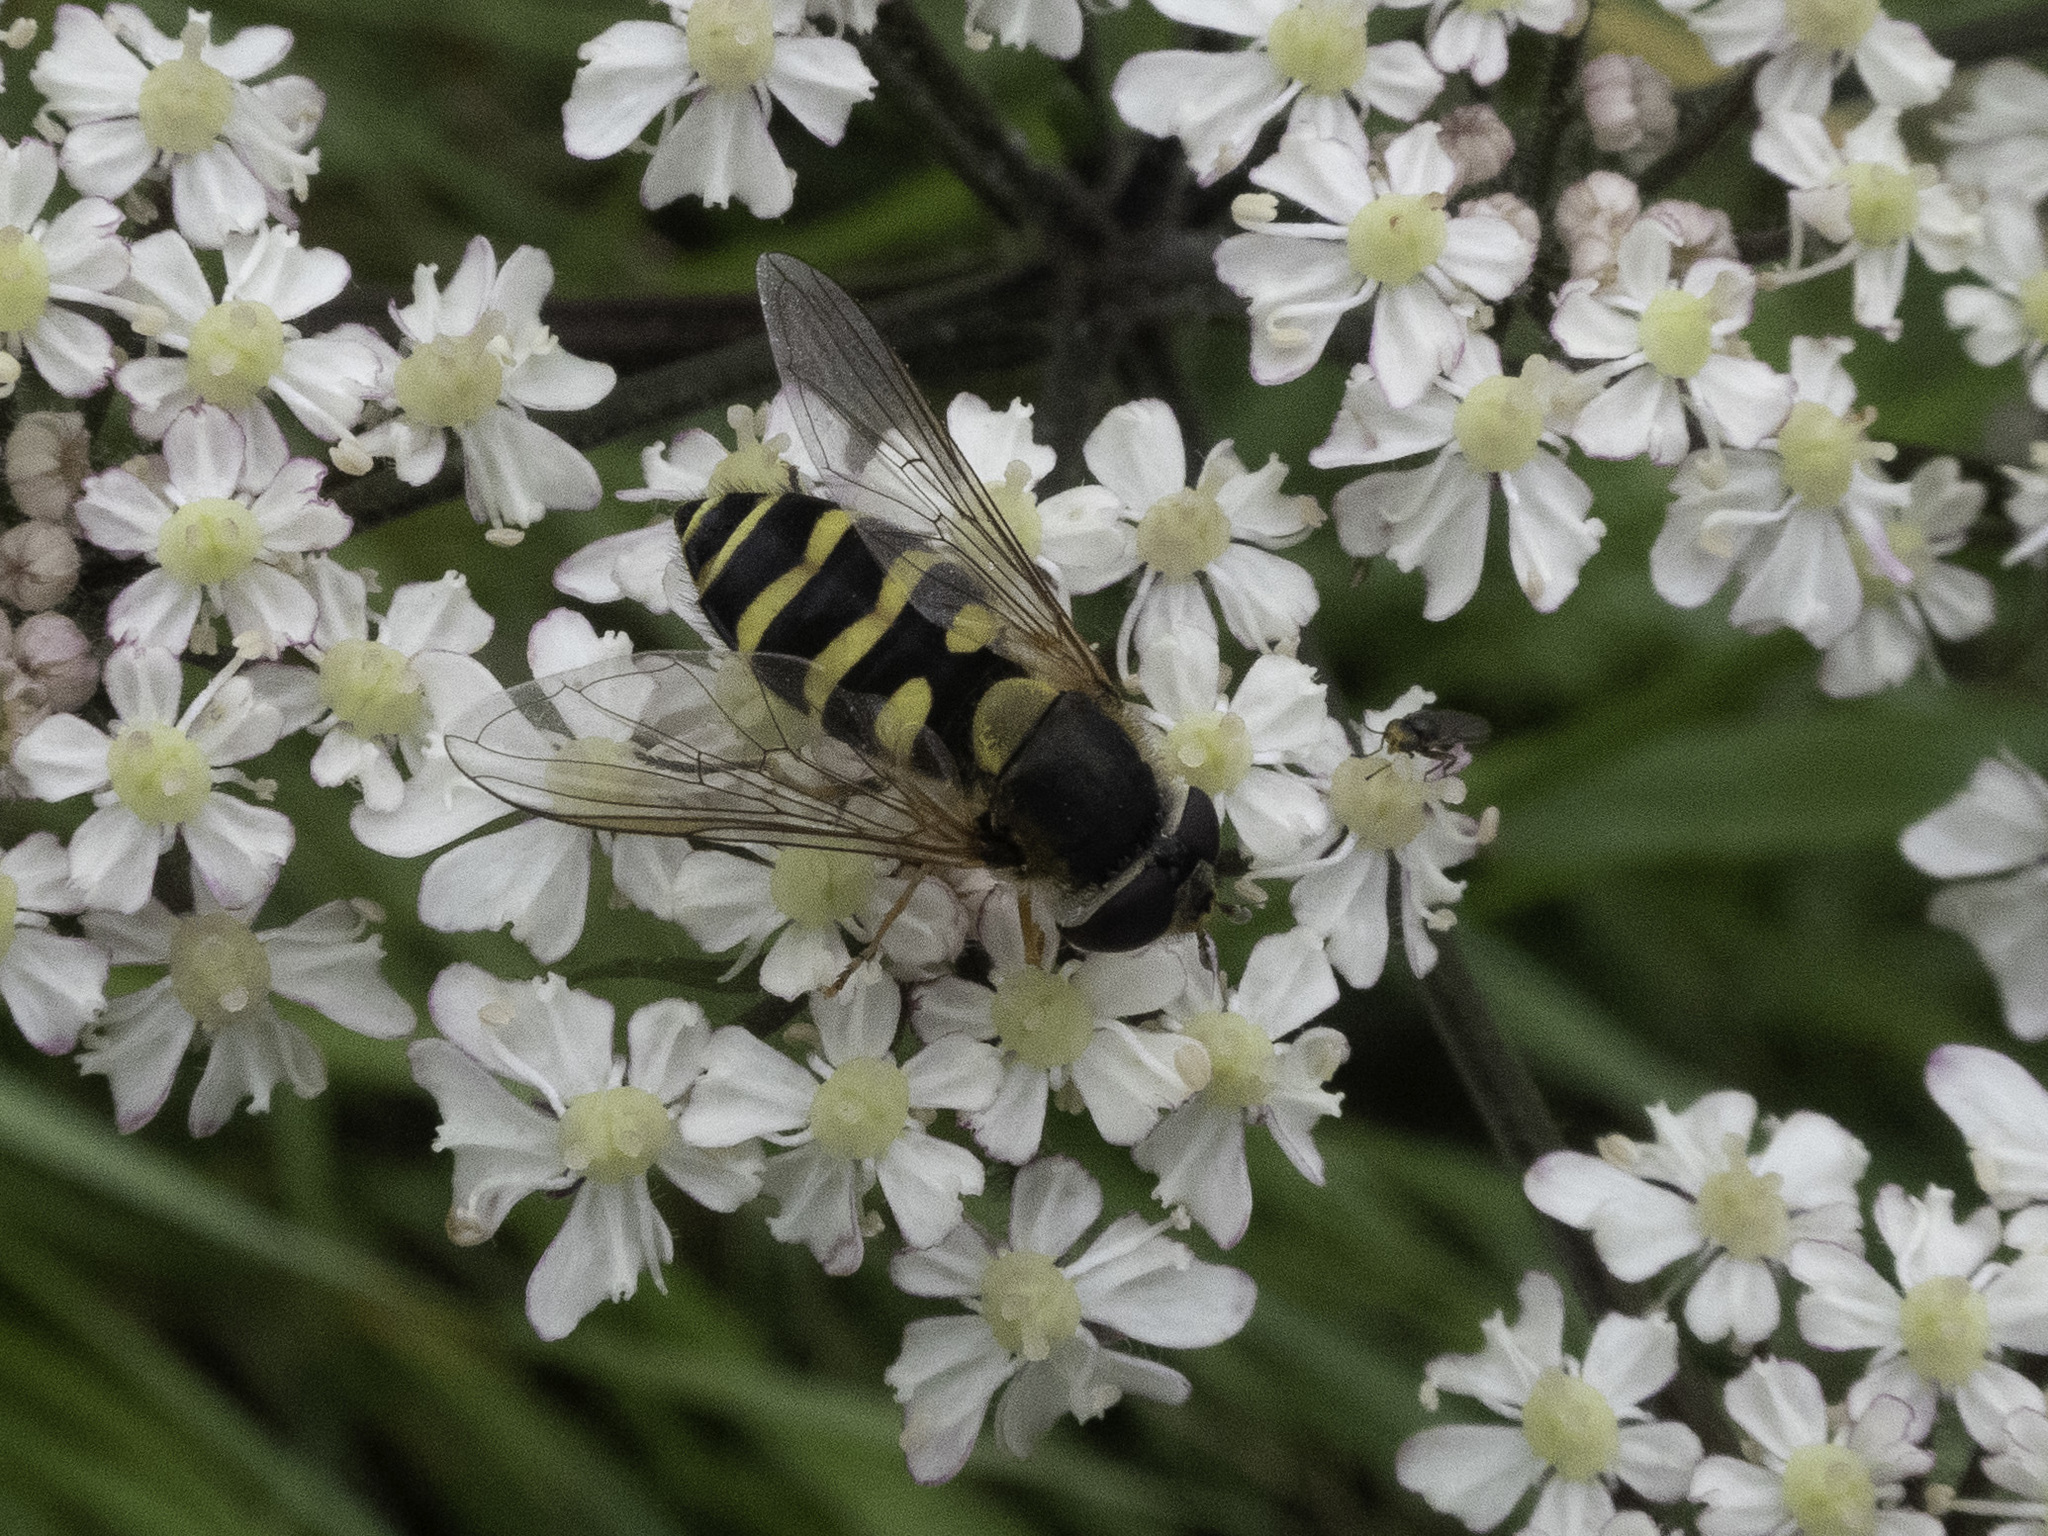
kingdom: Animalia
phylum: Arthropoda
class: Insecta
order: Diptera
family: Syrphidae
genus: Syrphus
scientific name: Syrphus
